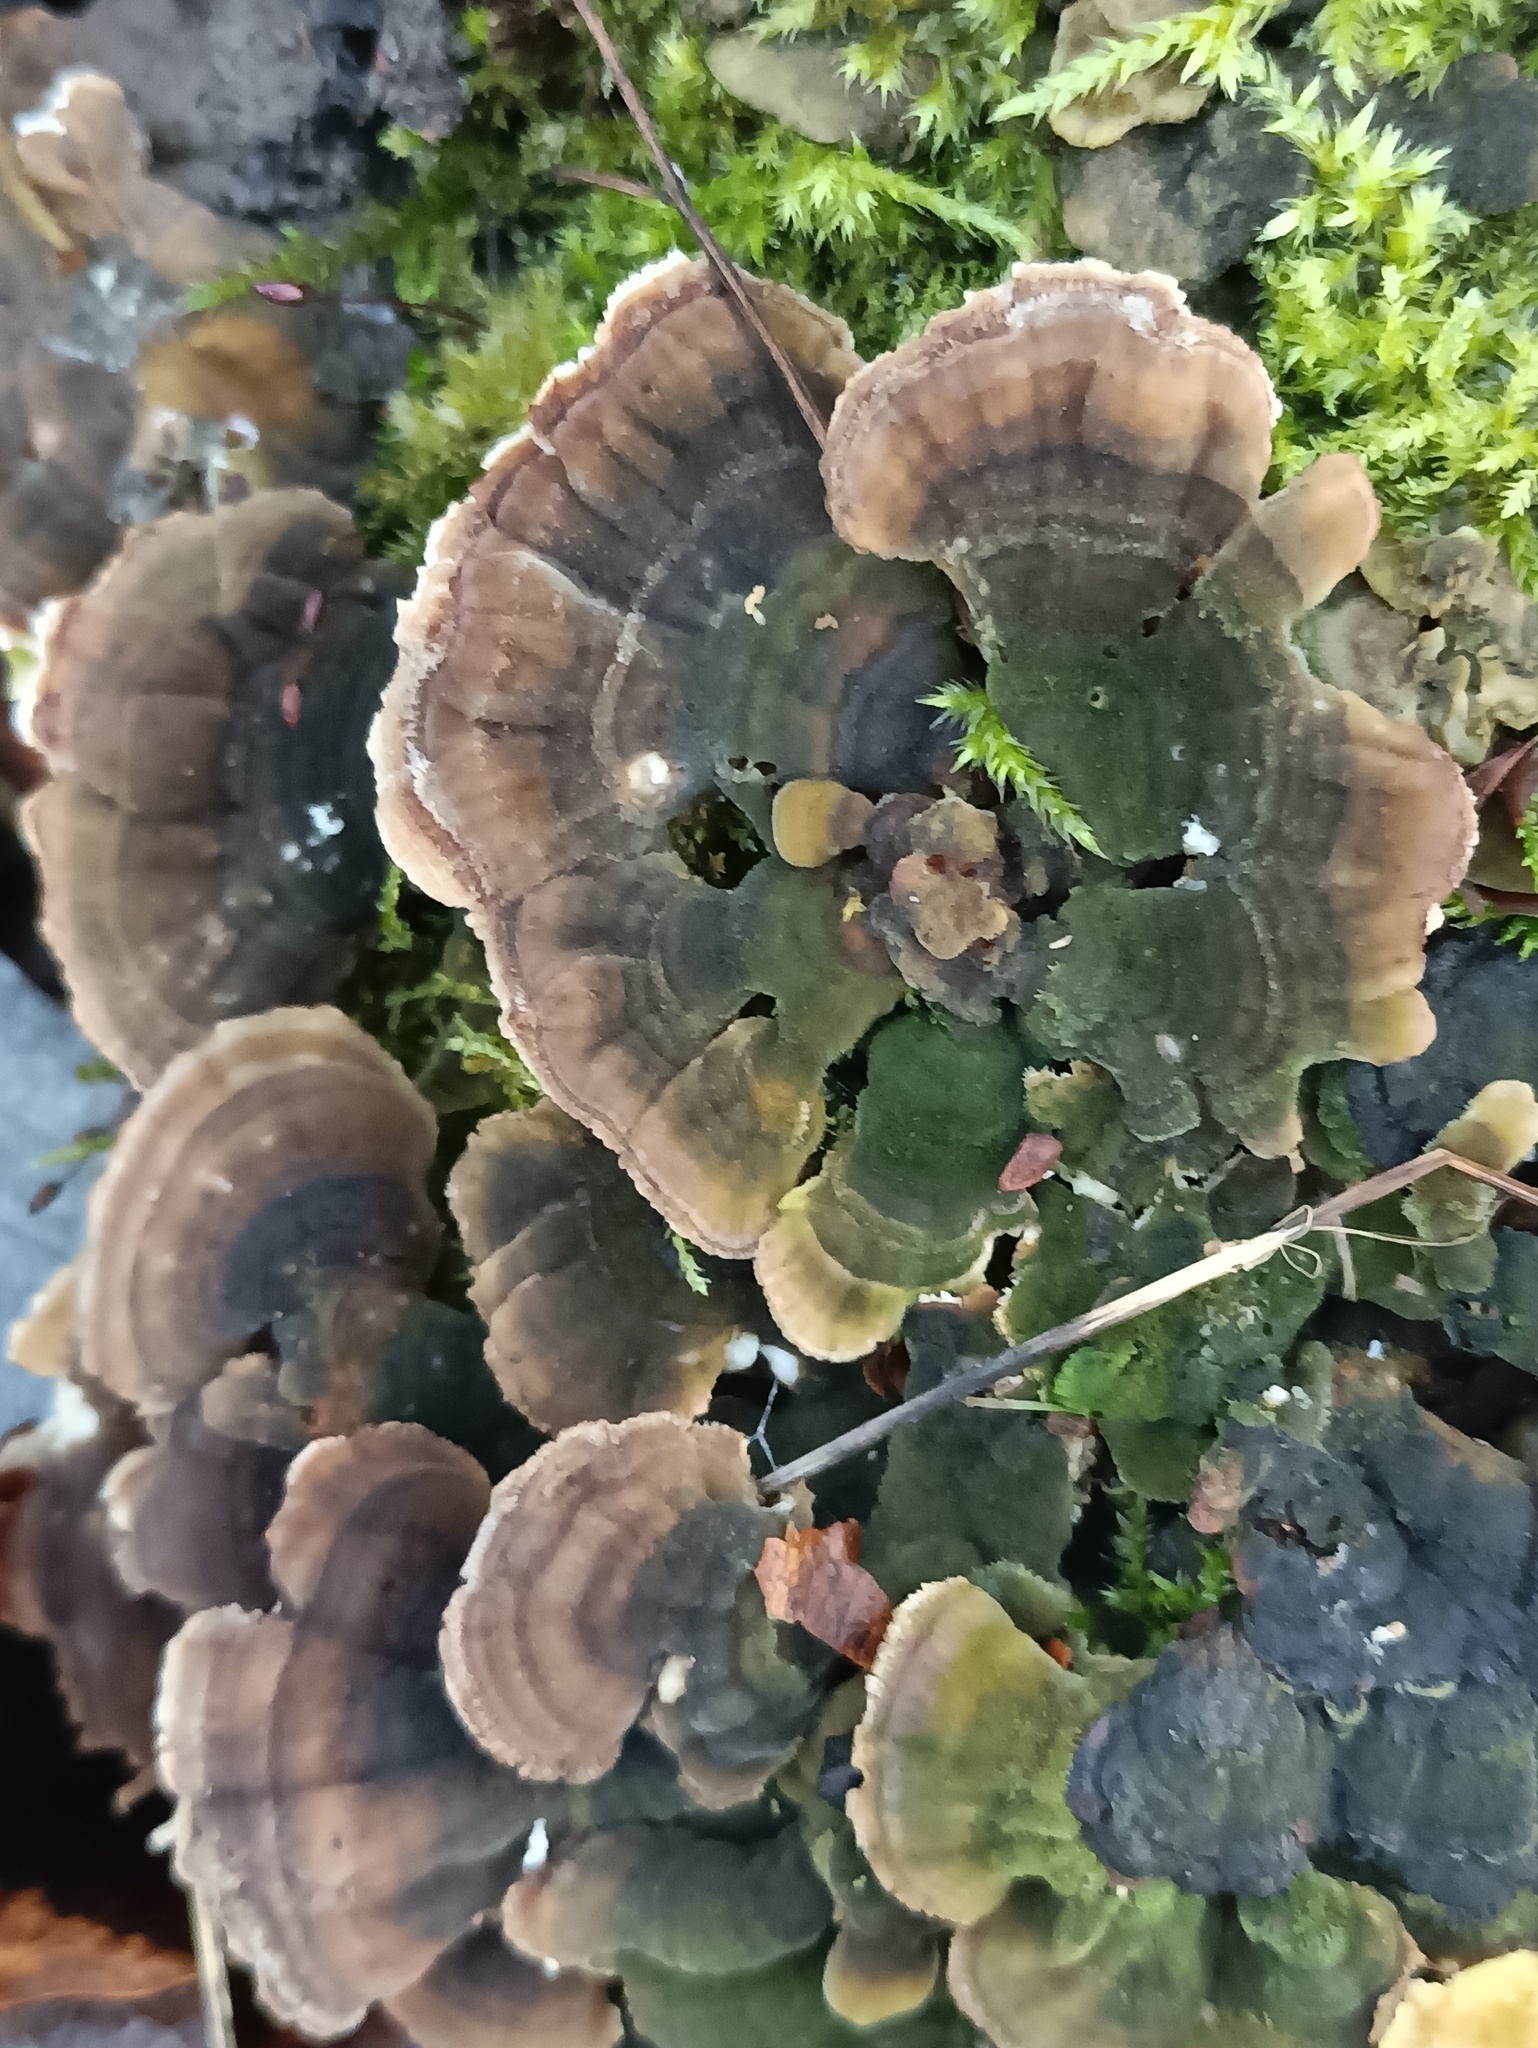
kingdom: Fungi
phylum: Basidiomycota
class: Agaricomycetes
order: Polyporales
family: Polyporaceae
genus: Trametes
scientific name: Trametes versicolor
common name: Turkeytail
